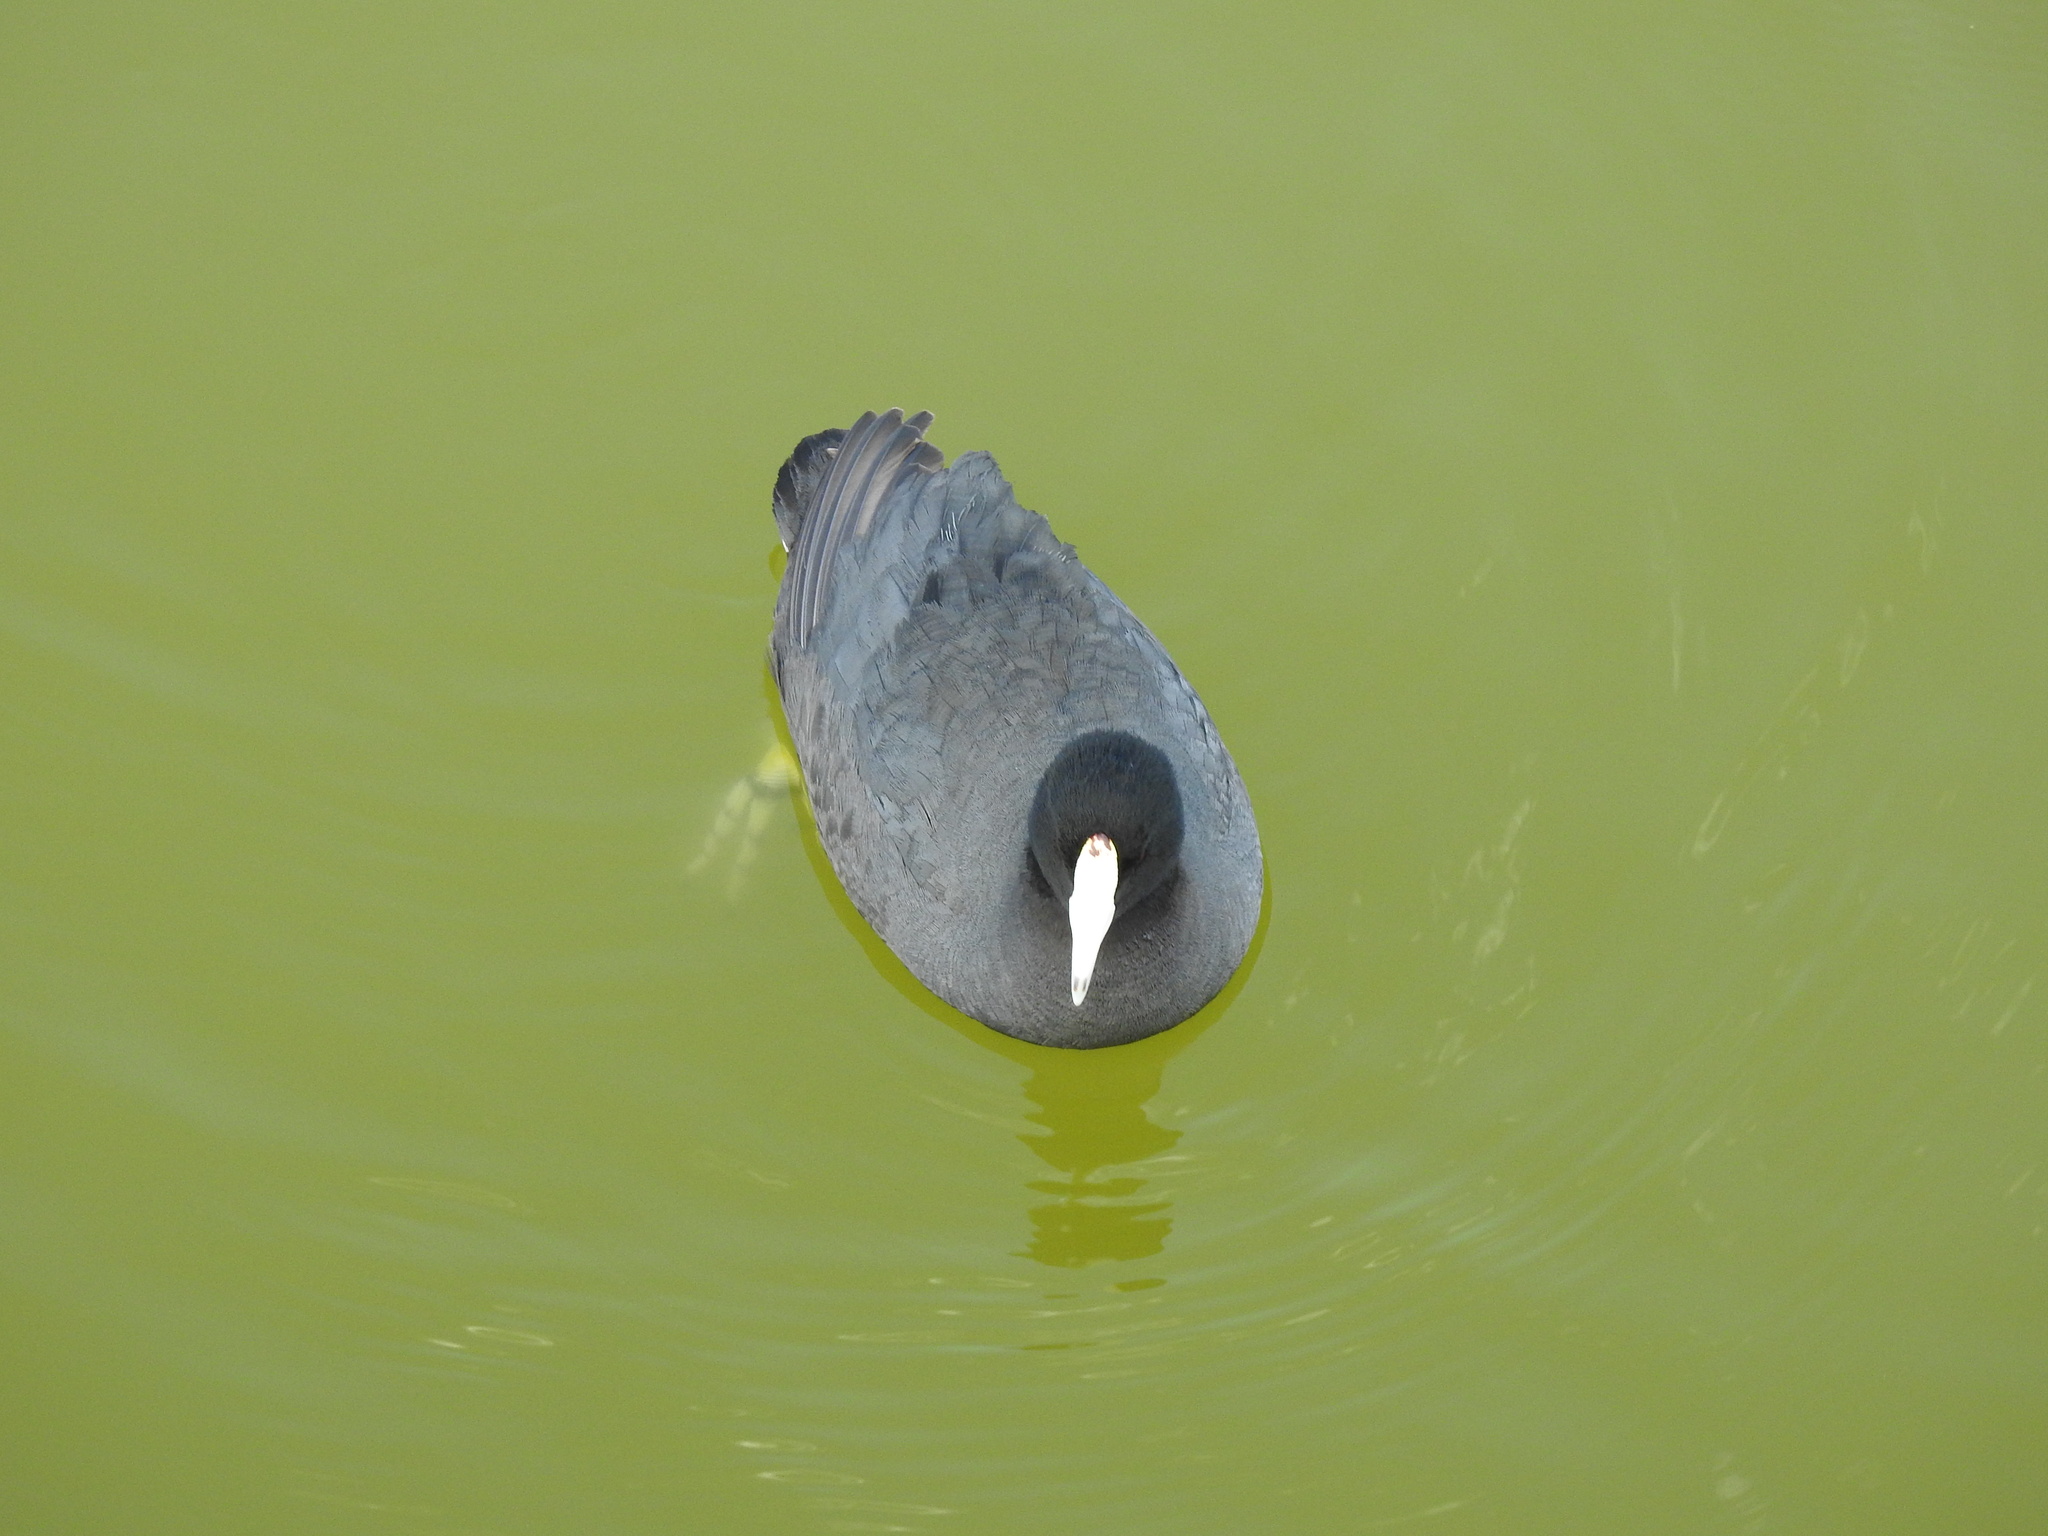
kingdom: Animalia
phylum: Chordata
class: Aves
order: Gruiformes
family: Rallidae
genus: Fulica
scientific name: Fulica americana
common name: American coot
